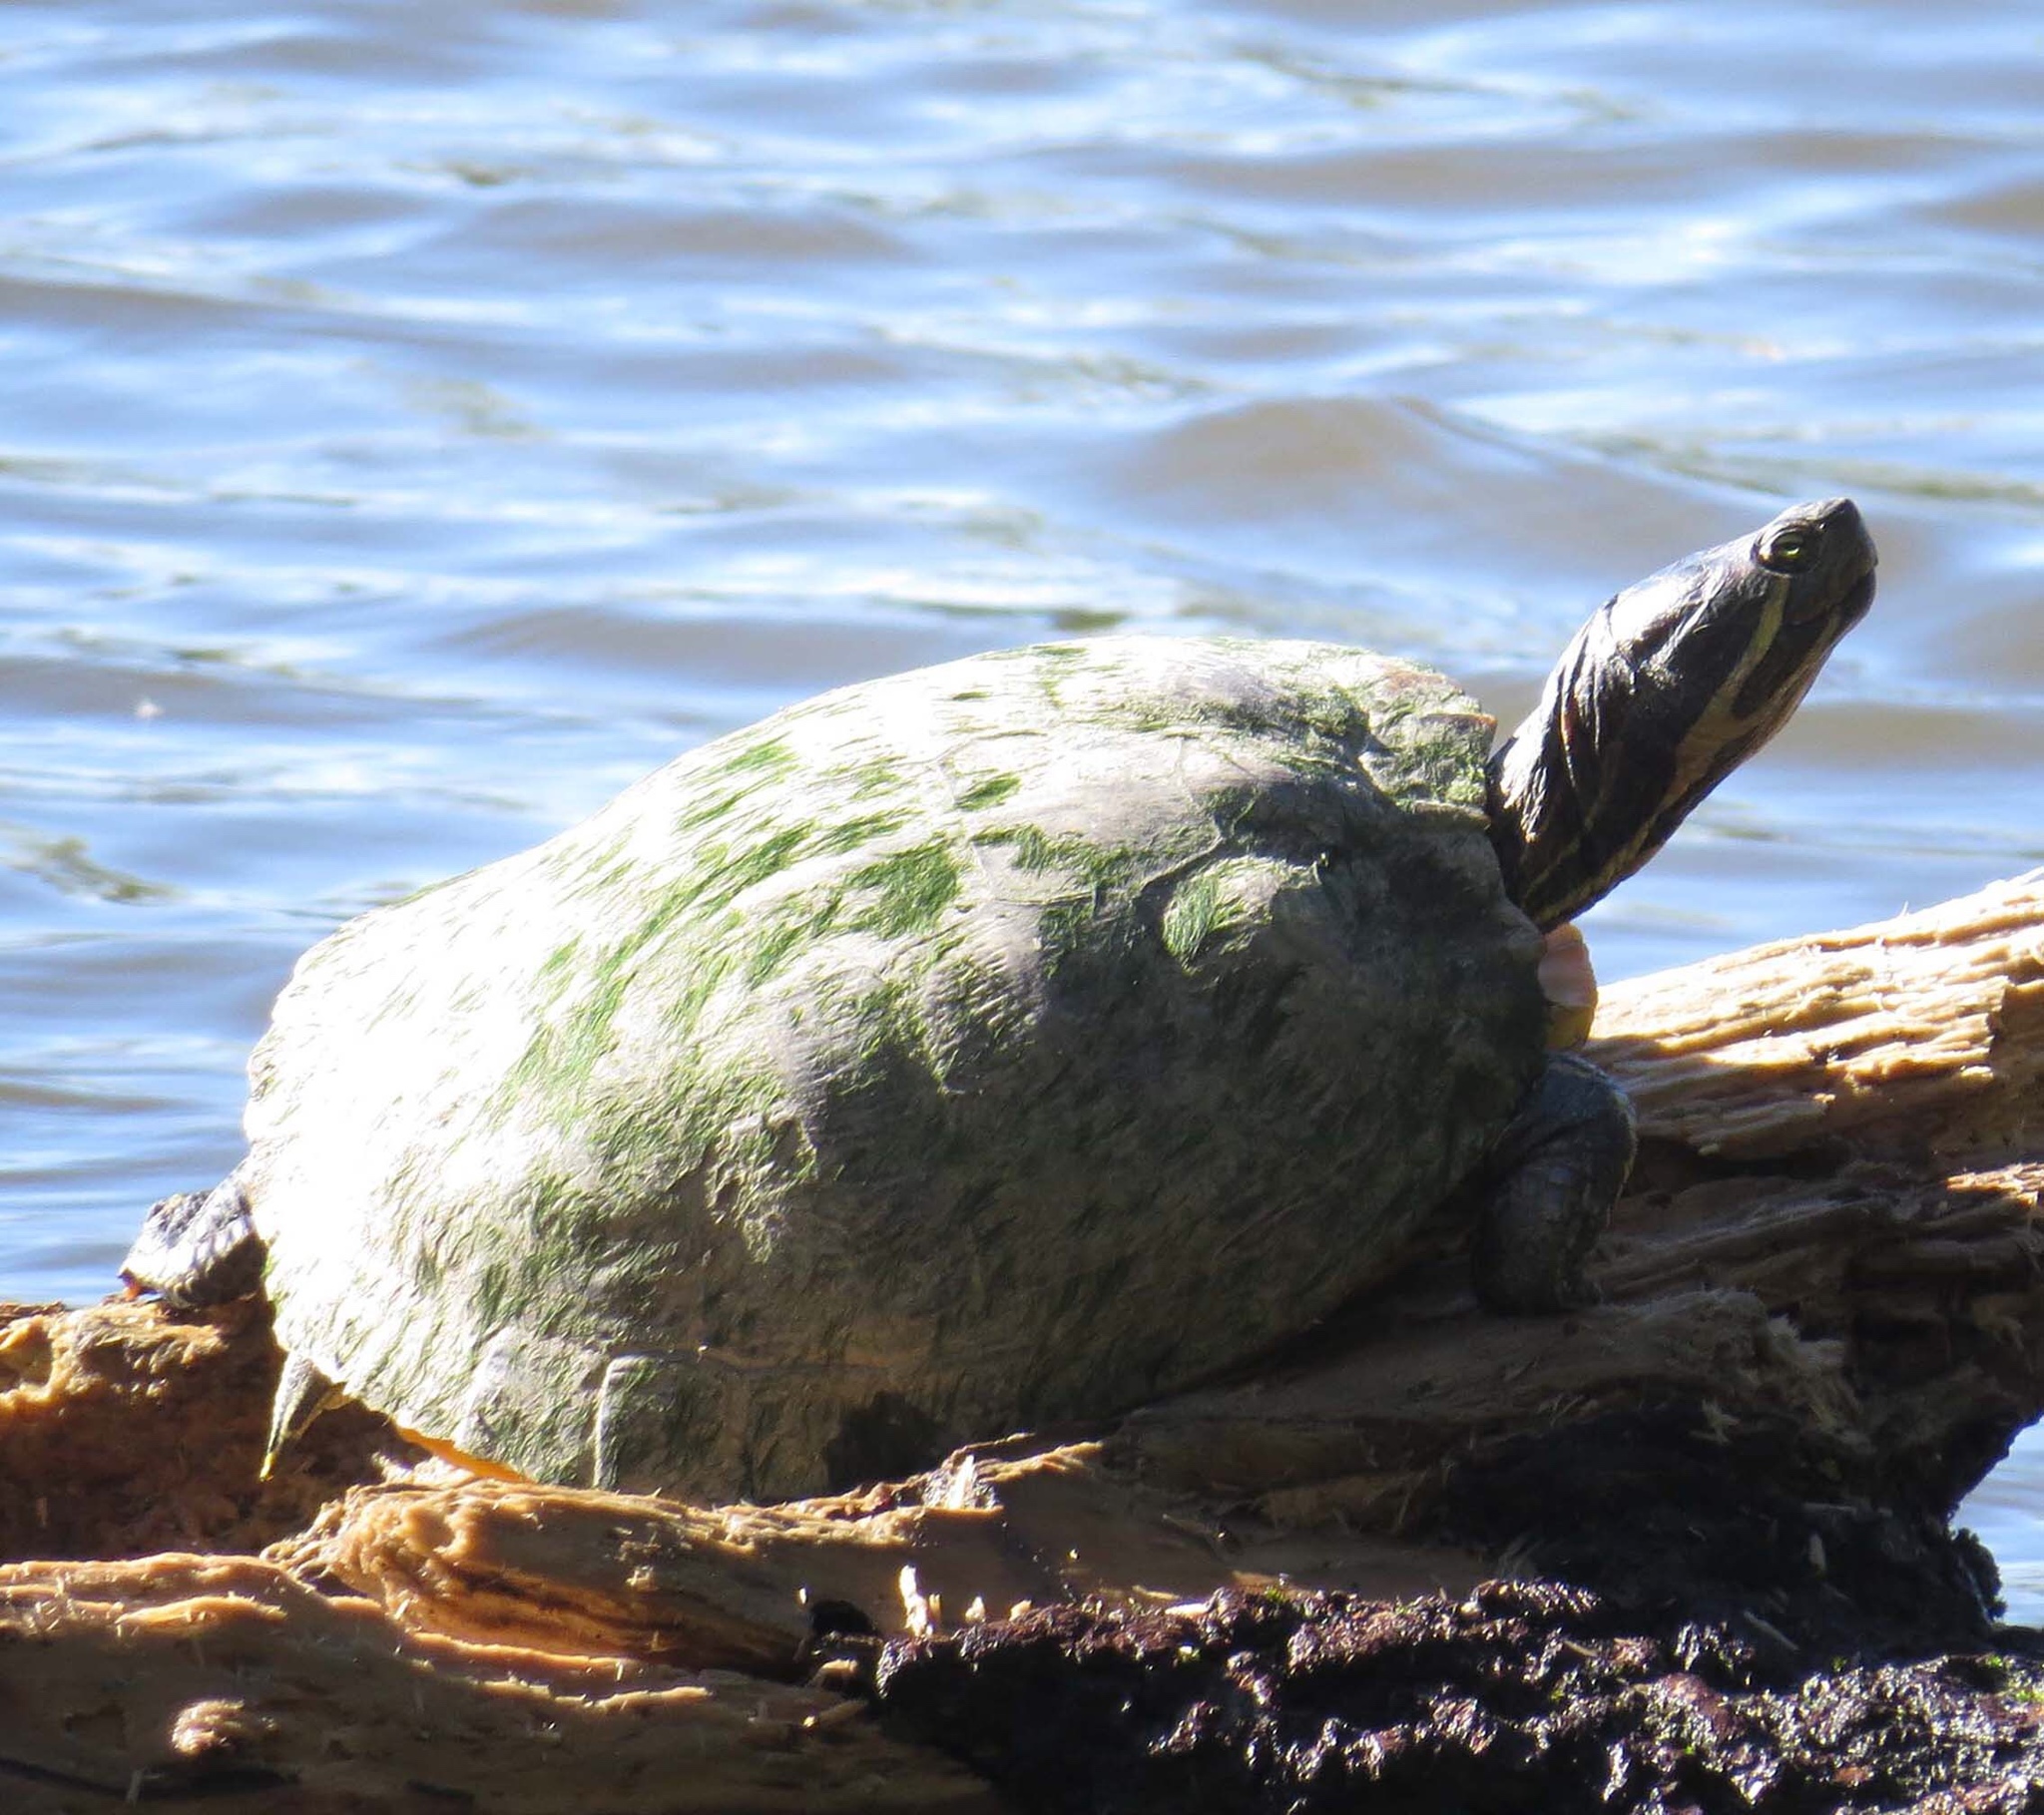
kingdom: Animalia
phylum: Chordata
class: Testudines
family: Emydidae
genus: Trachemys
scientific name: Trachemys scripta
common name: Slider
